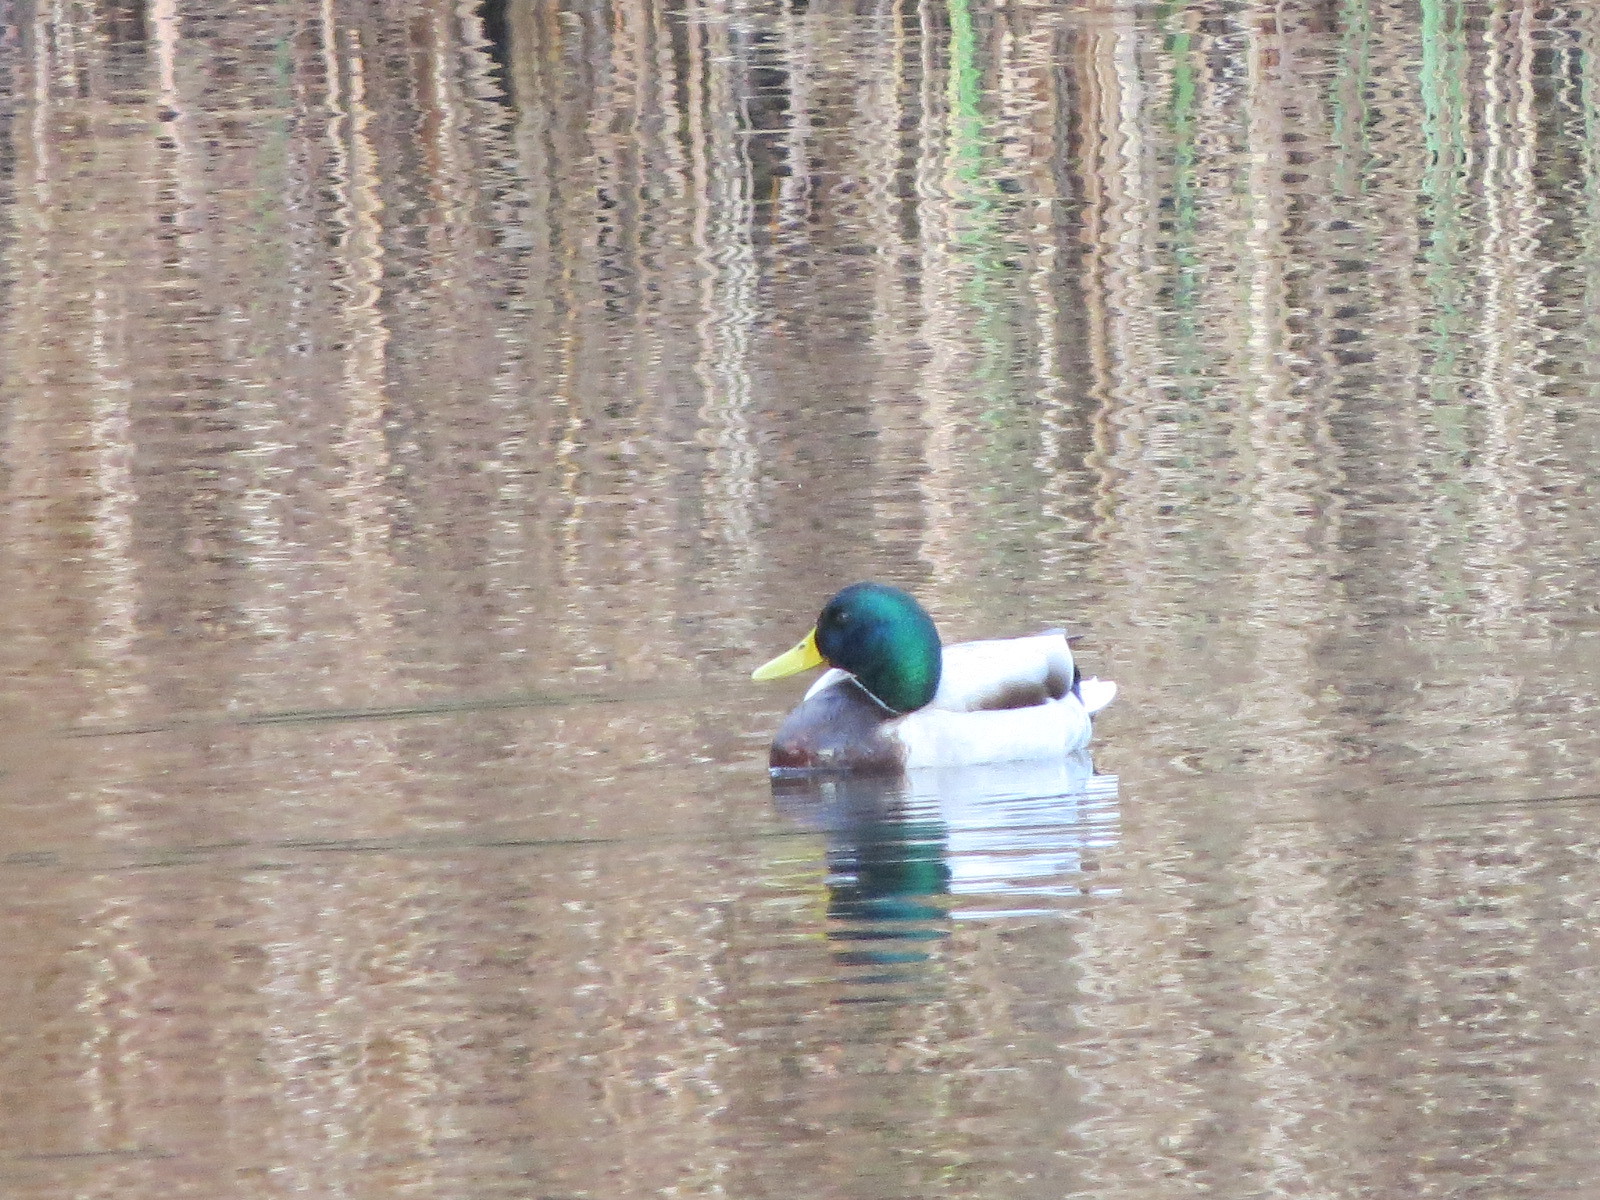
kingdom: Animalia
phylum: Chordata
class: Aves
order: Anseriformes
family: Anatidae
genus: Anas
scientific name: Anas platyrhynchos
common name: Mallard
